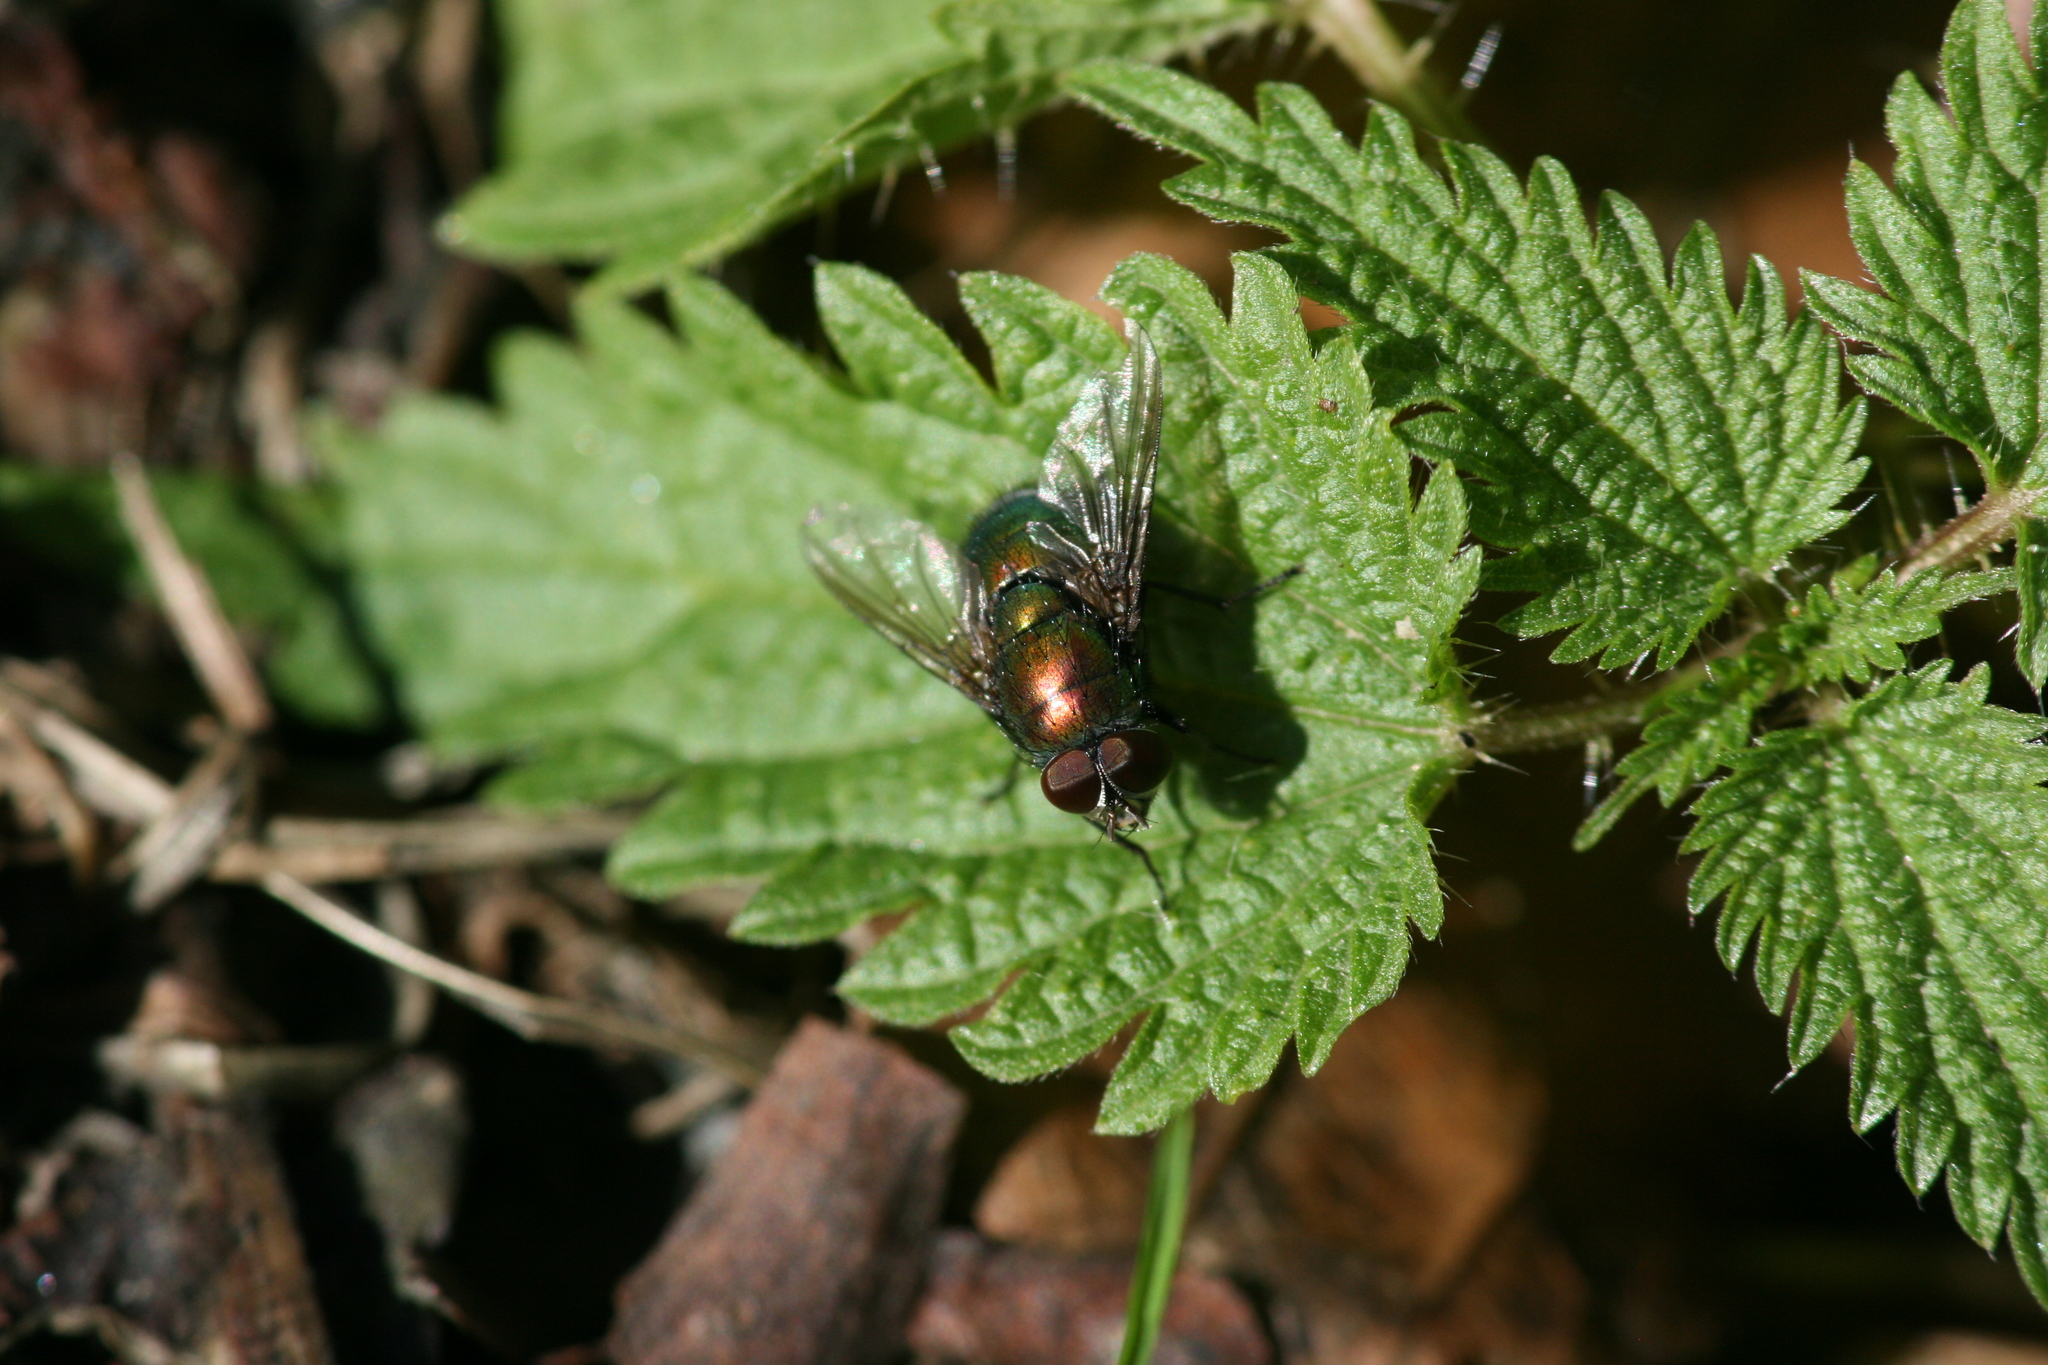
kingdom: Animalia
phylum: Arthropoda
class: Insecta
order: Diptera
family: Calliphoridae
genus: Lucilia
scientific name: Lucilia caesar
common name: Blow fly
